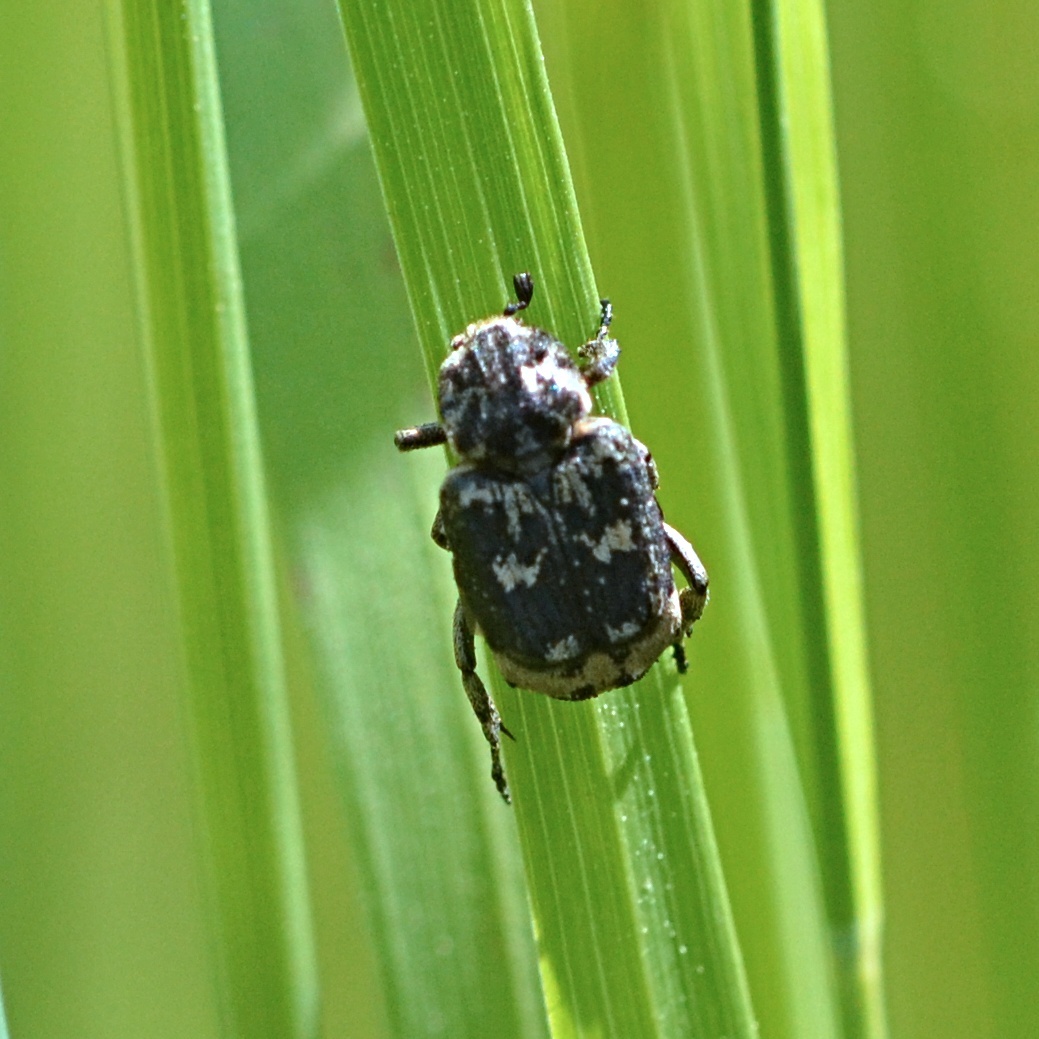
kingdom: Animalia
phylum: Arthropoda
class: Insecta
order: Coleoptera
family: Scarabaeidae
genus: Valgus
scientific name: Valgus hemipterus
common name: Bug flower chafer
